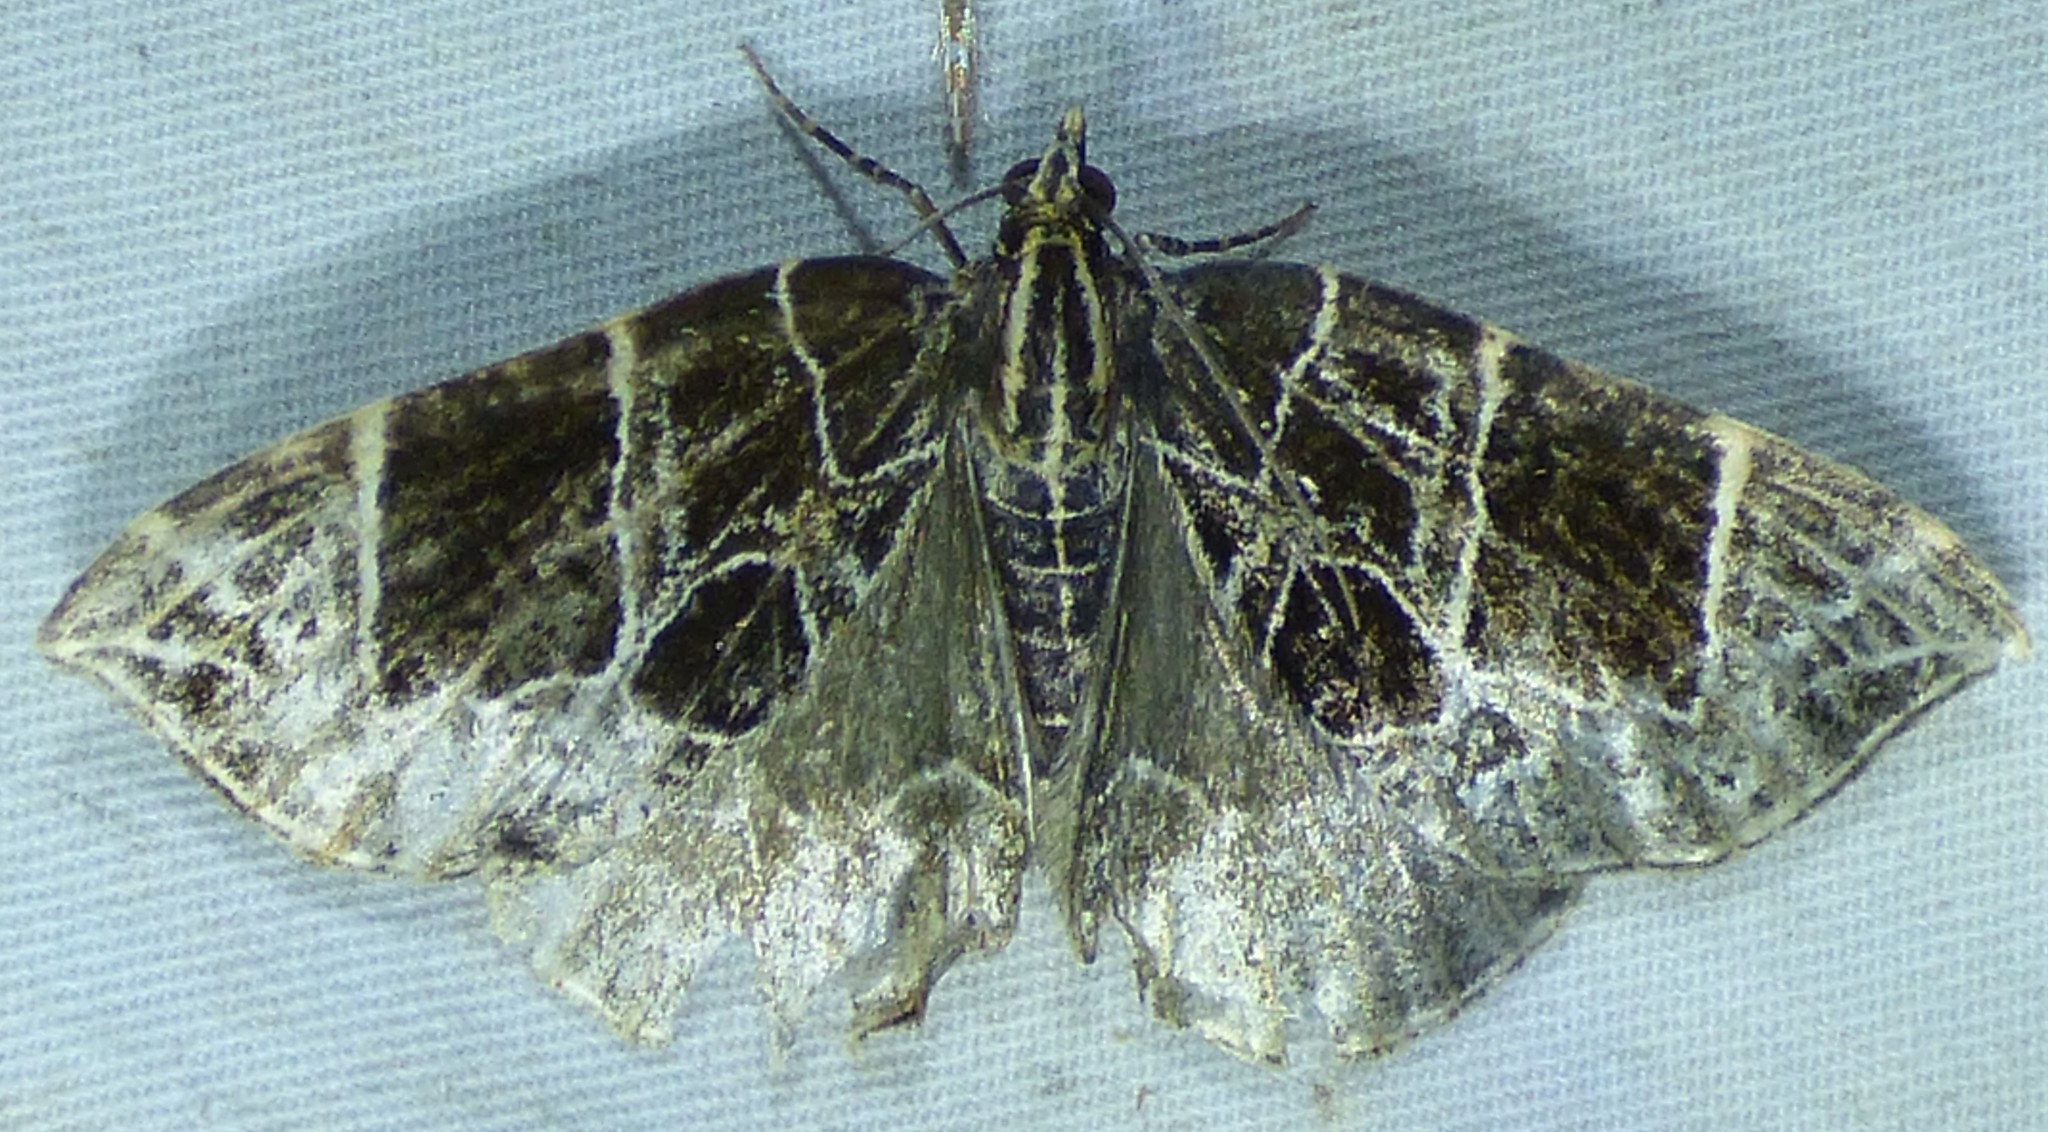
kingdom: Animalia
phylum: Arthropoda
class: Insecta
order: Lepidoptera
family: Geometridae
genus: Ecliptopera
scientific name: Ecliptopera atricolorata
